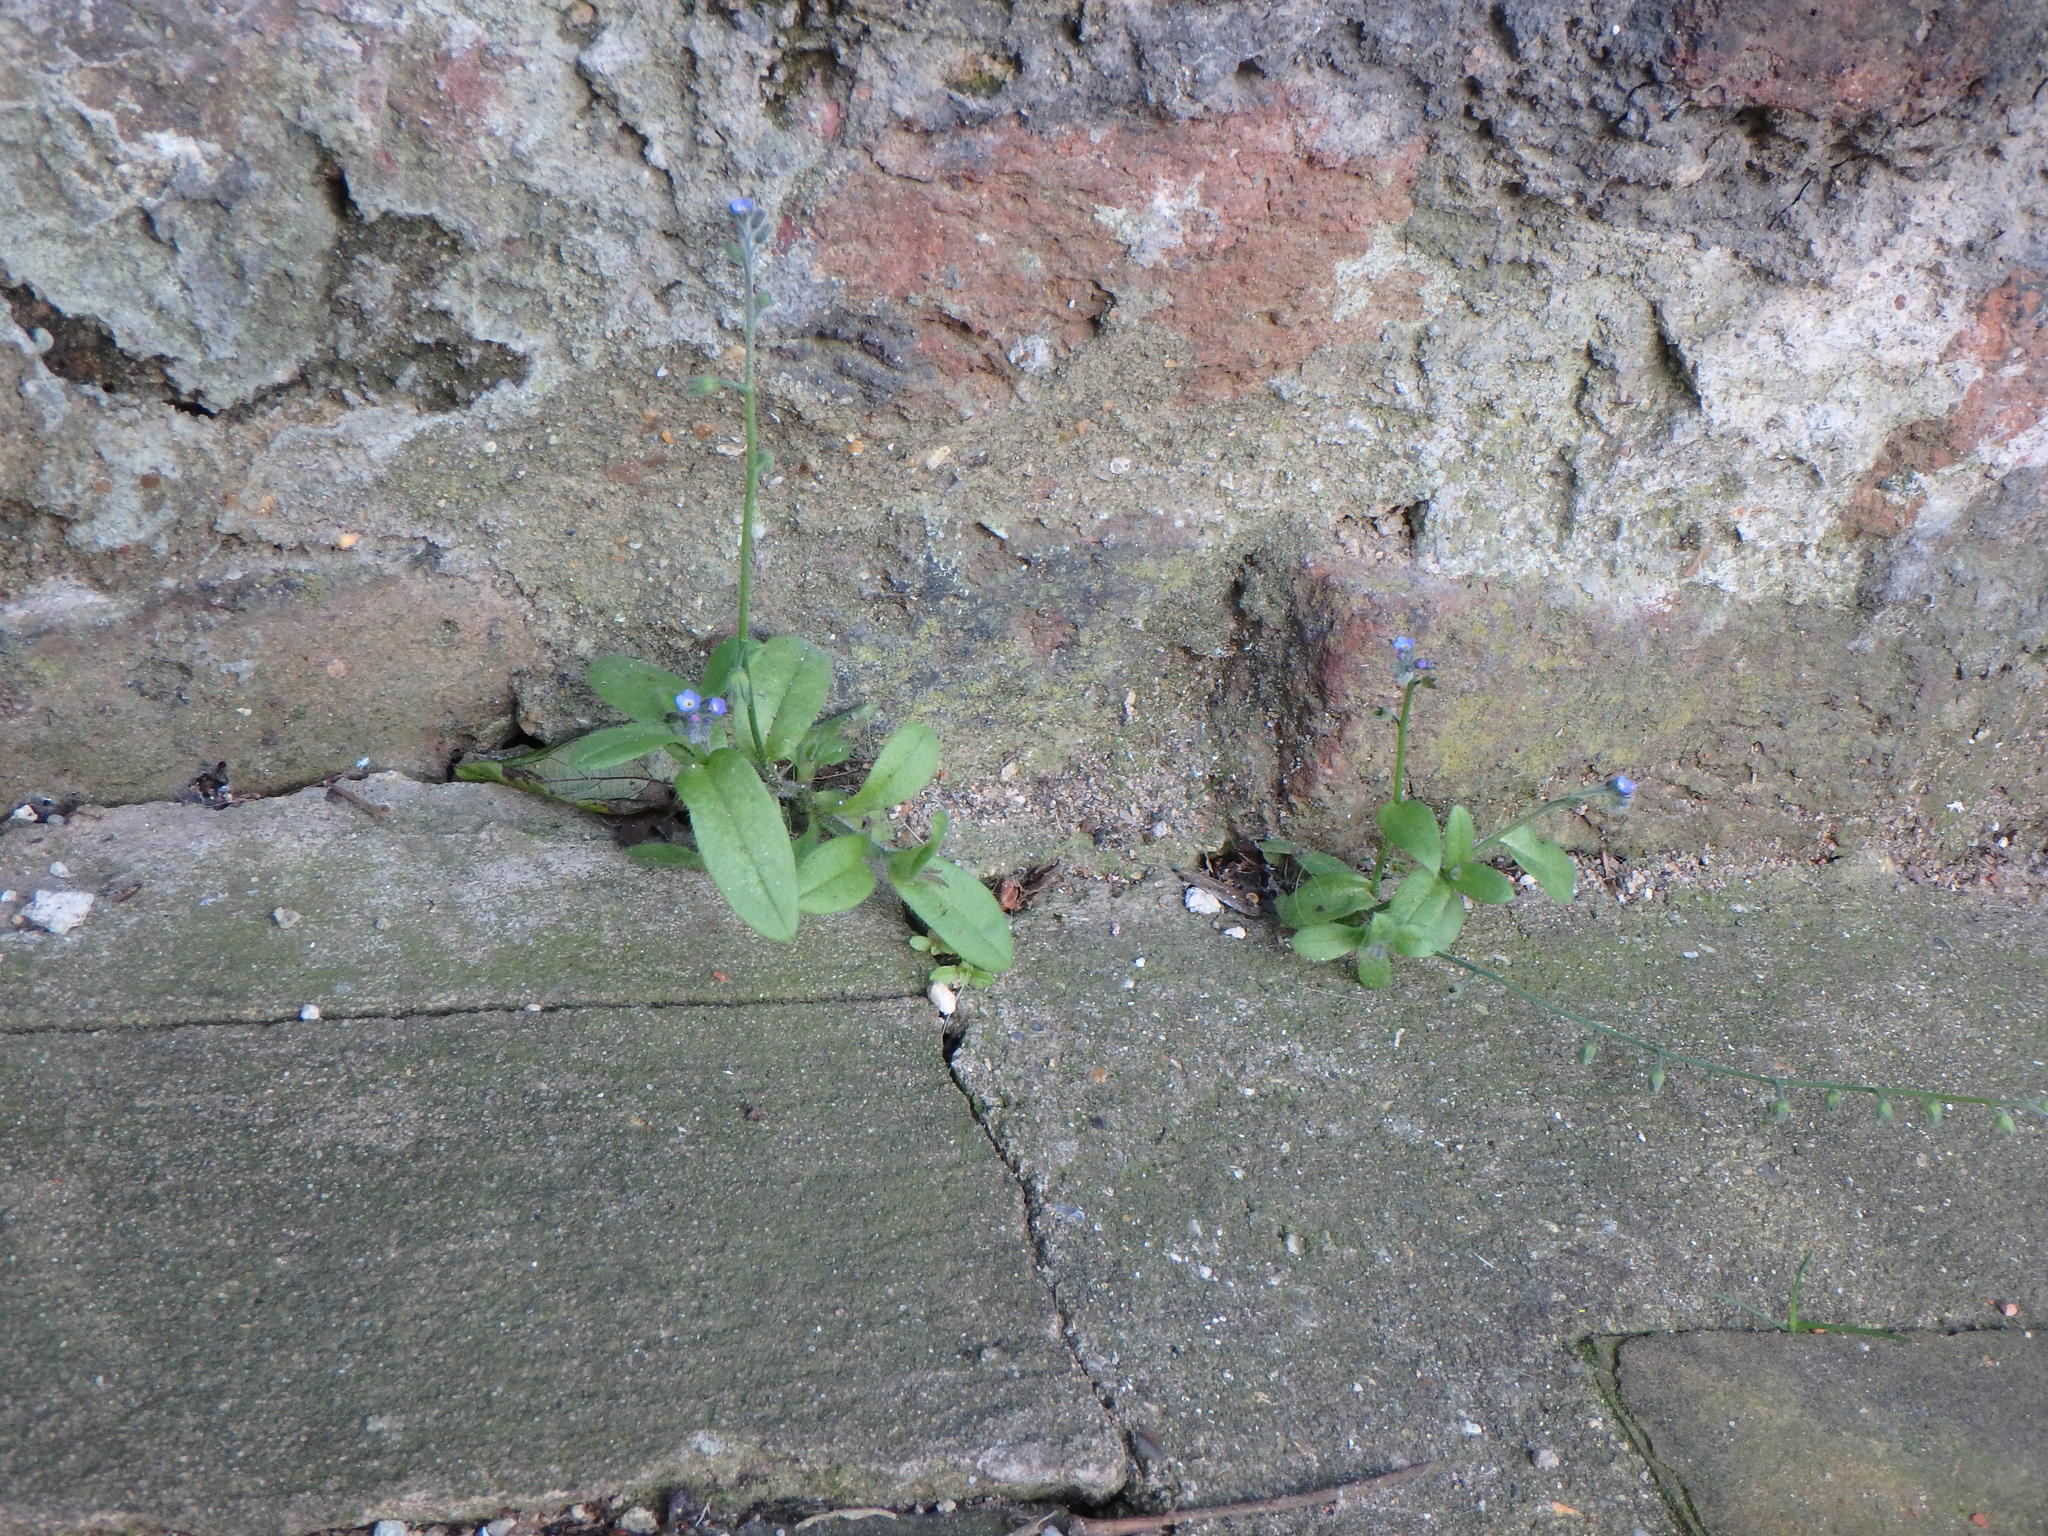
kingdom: Plantae
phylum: Tracheophyta
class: Magnoliopsida
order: Boraginales
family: Boraginaceae
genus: Myosotis
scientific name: Myosotis arvensis
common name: Field forget-me-not
